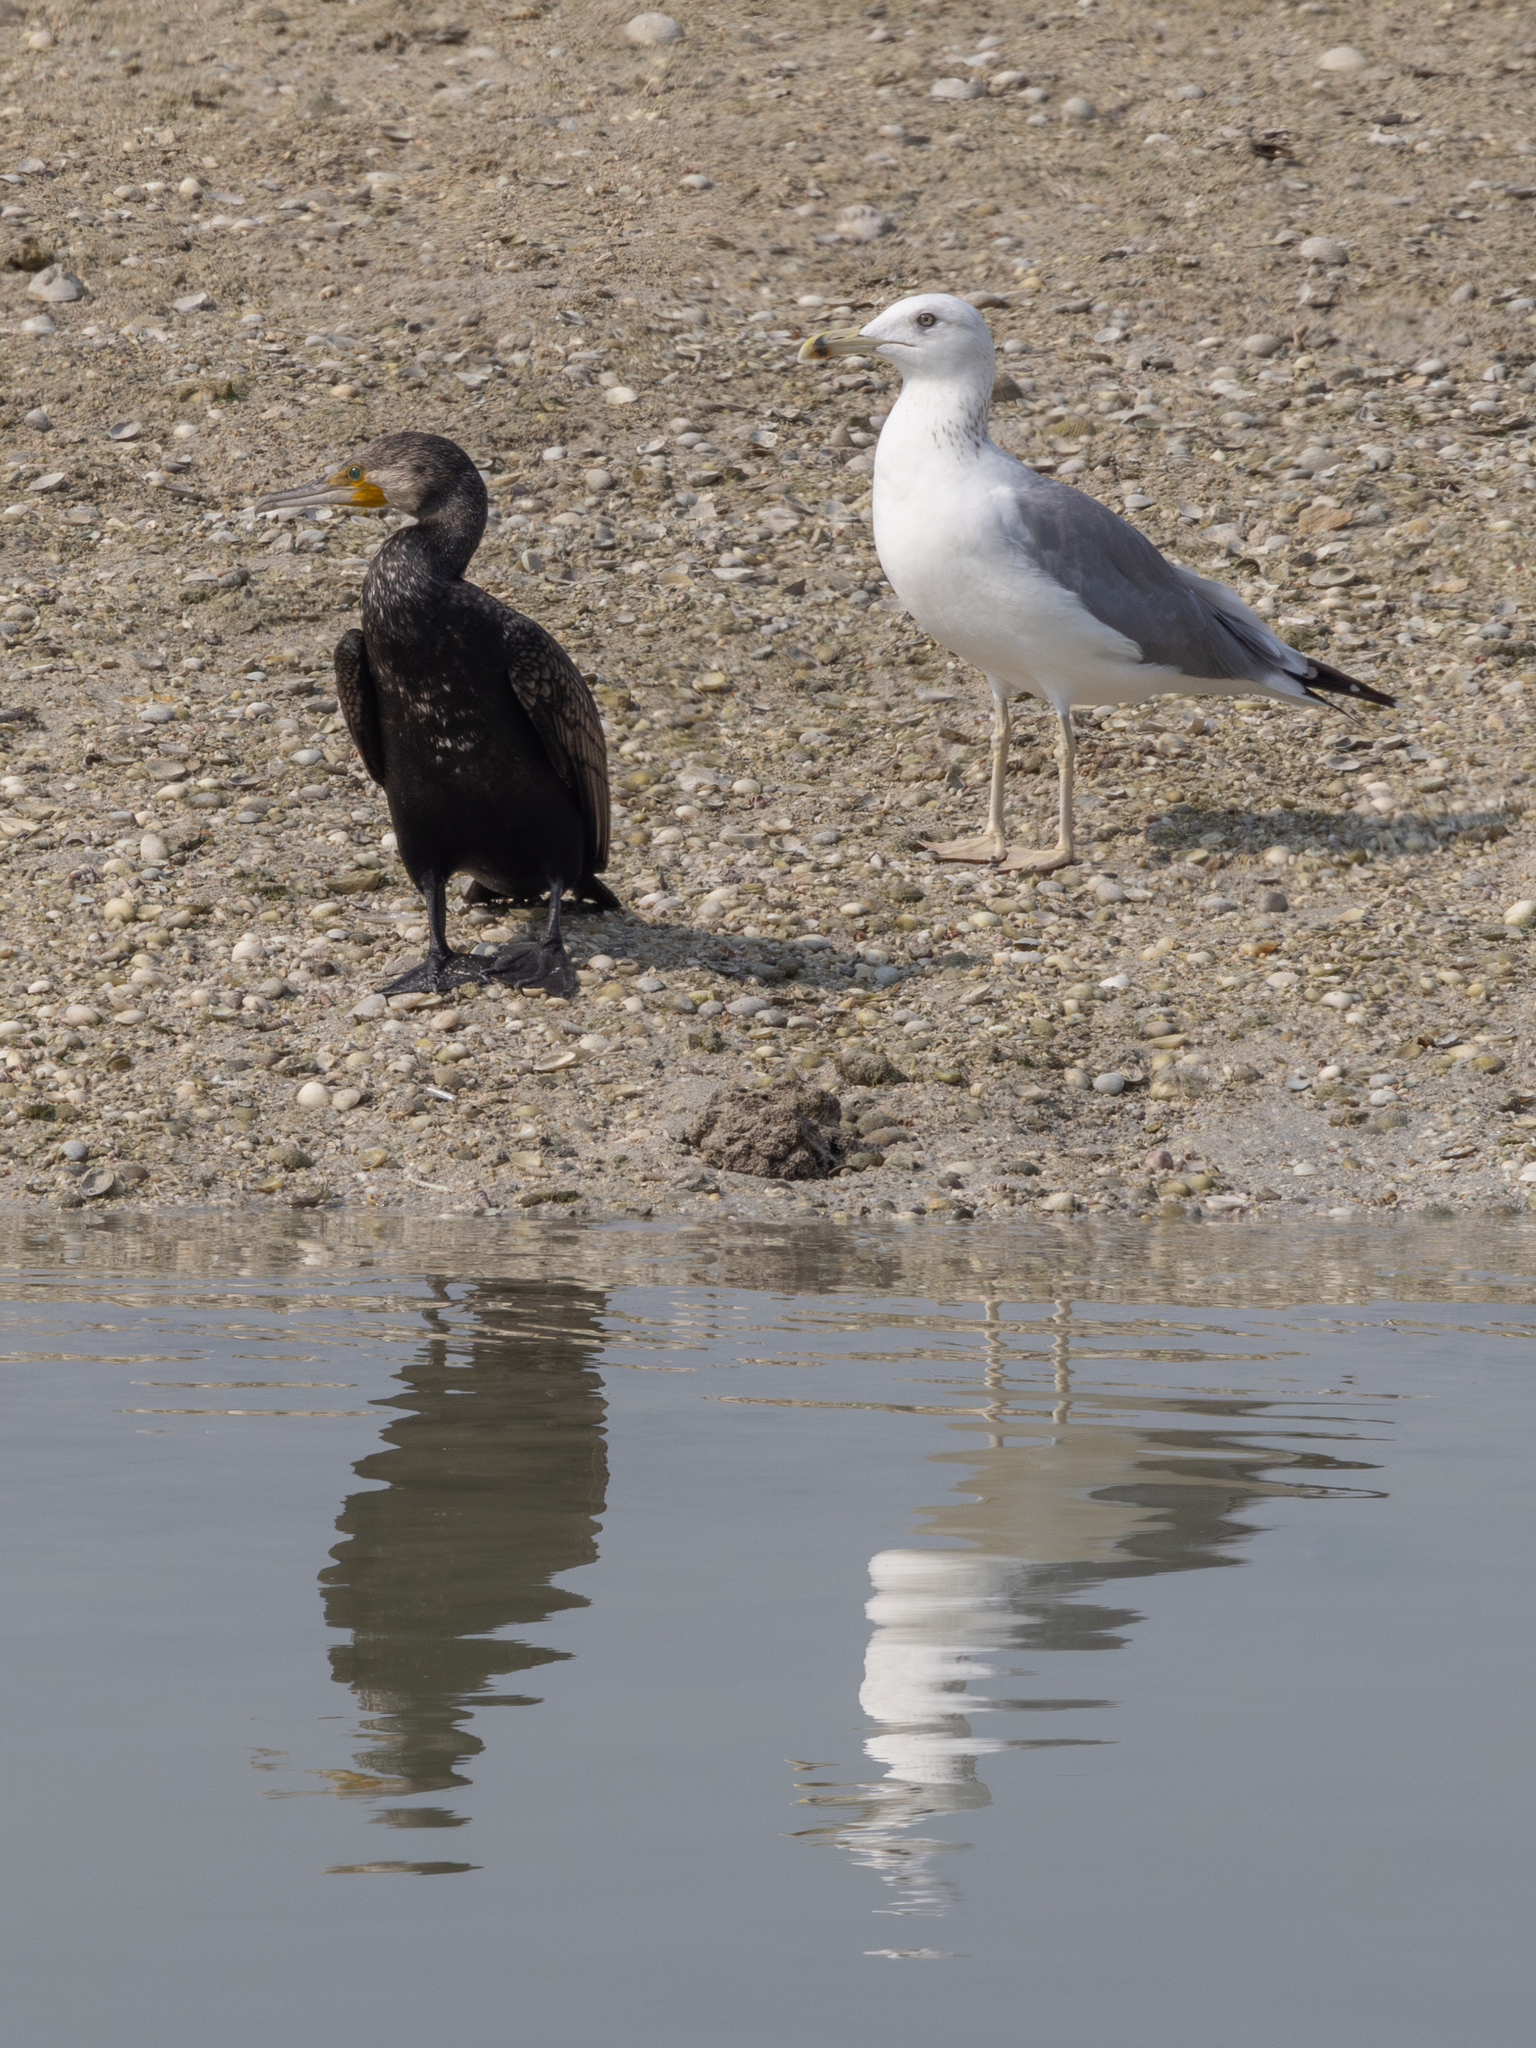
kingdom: Animalia
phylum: Chordata
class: Aves
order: Suliformes
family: Phalacrocoracidae
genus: Phalacrocorax
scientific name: Phalacrocorax carbo
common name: Great cormorant
